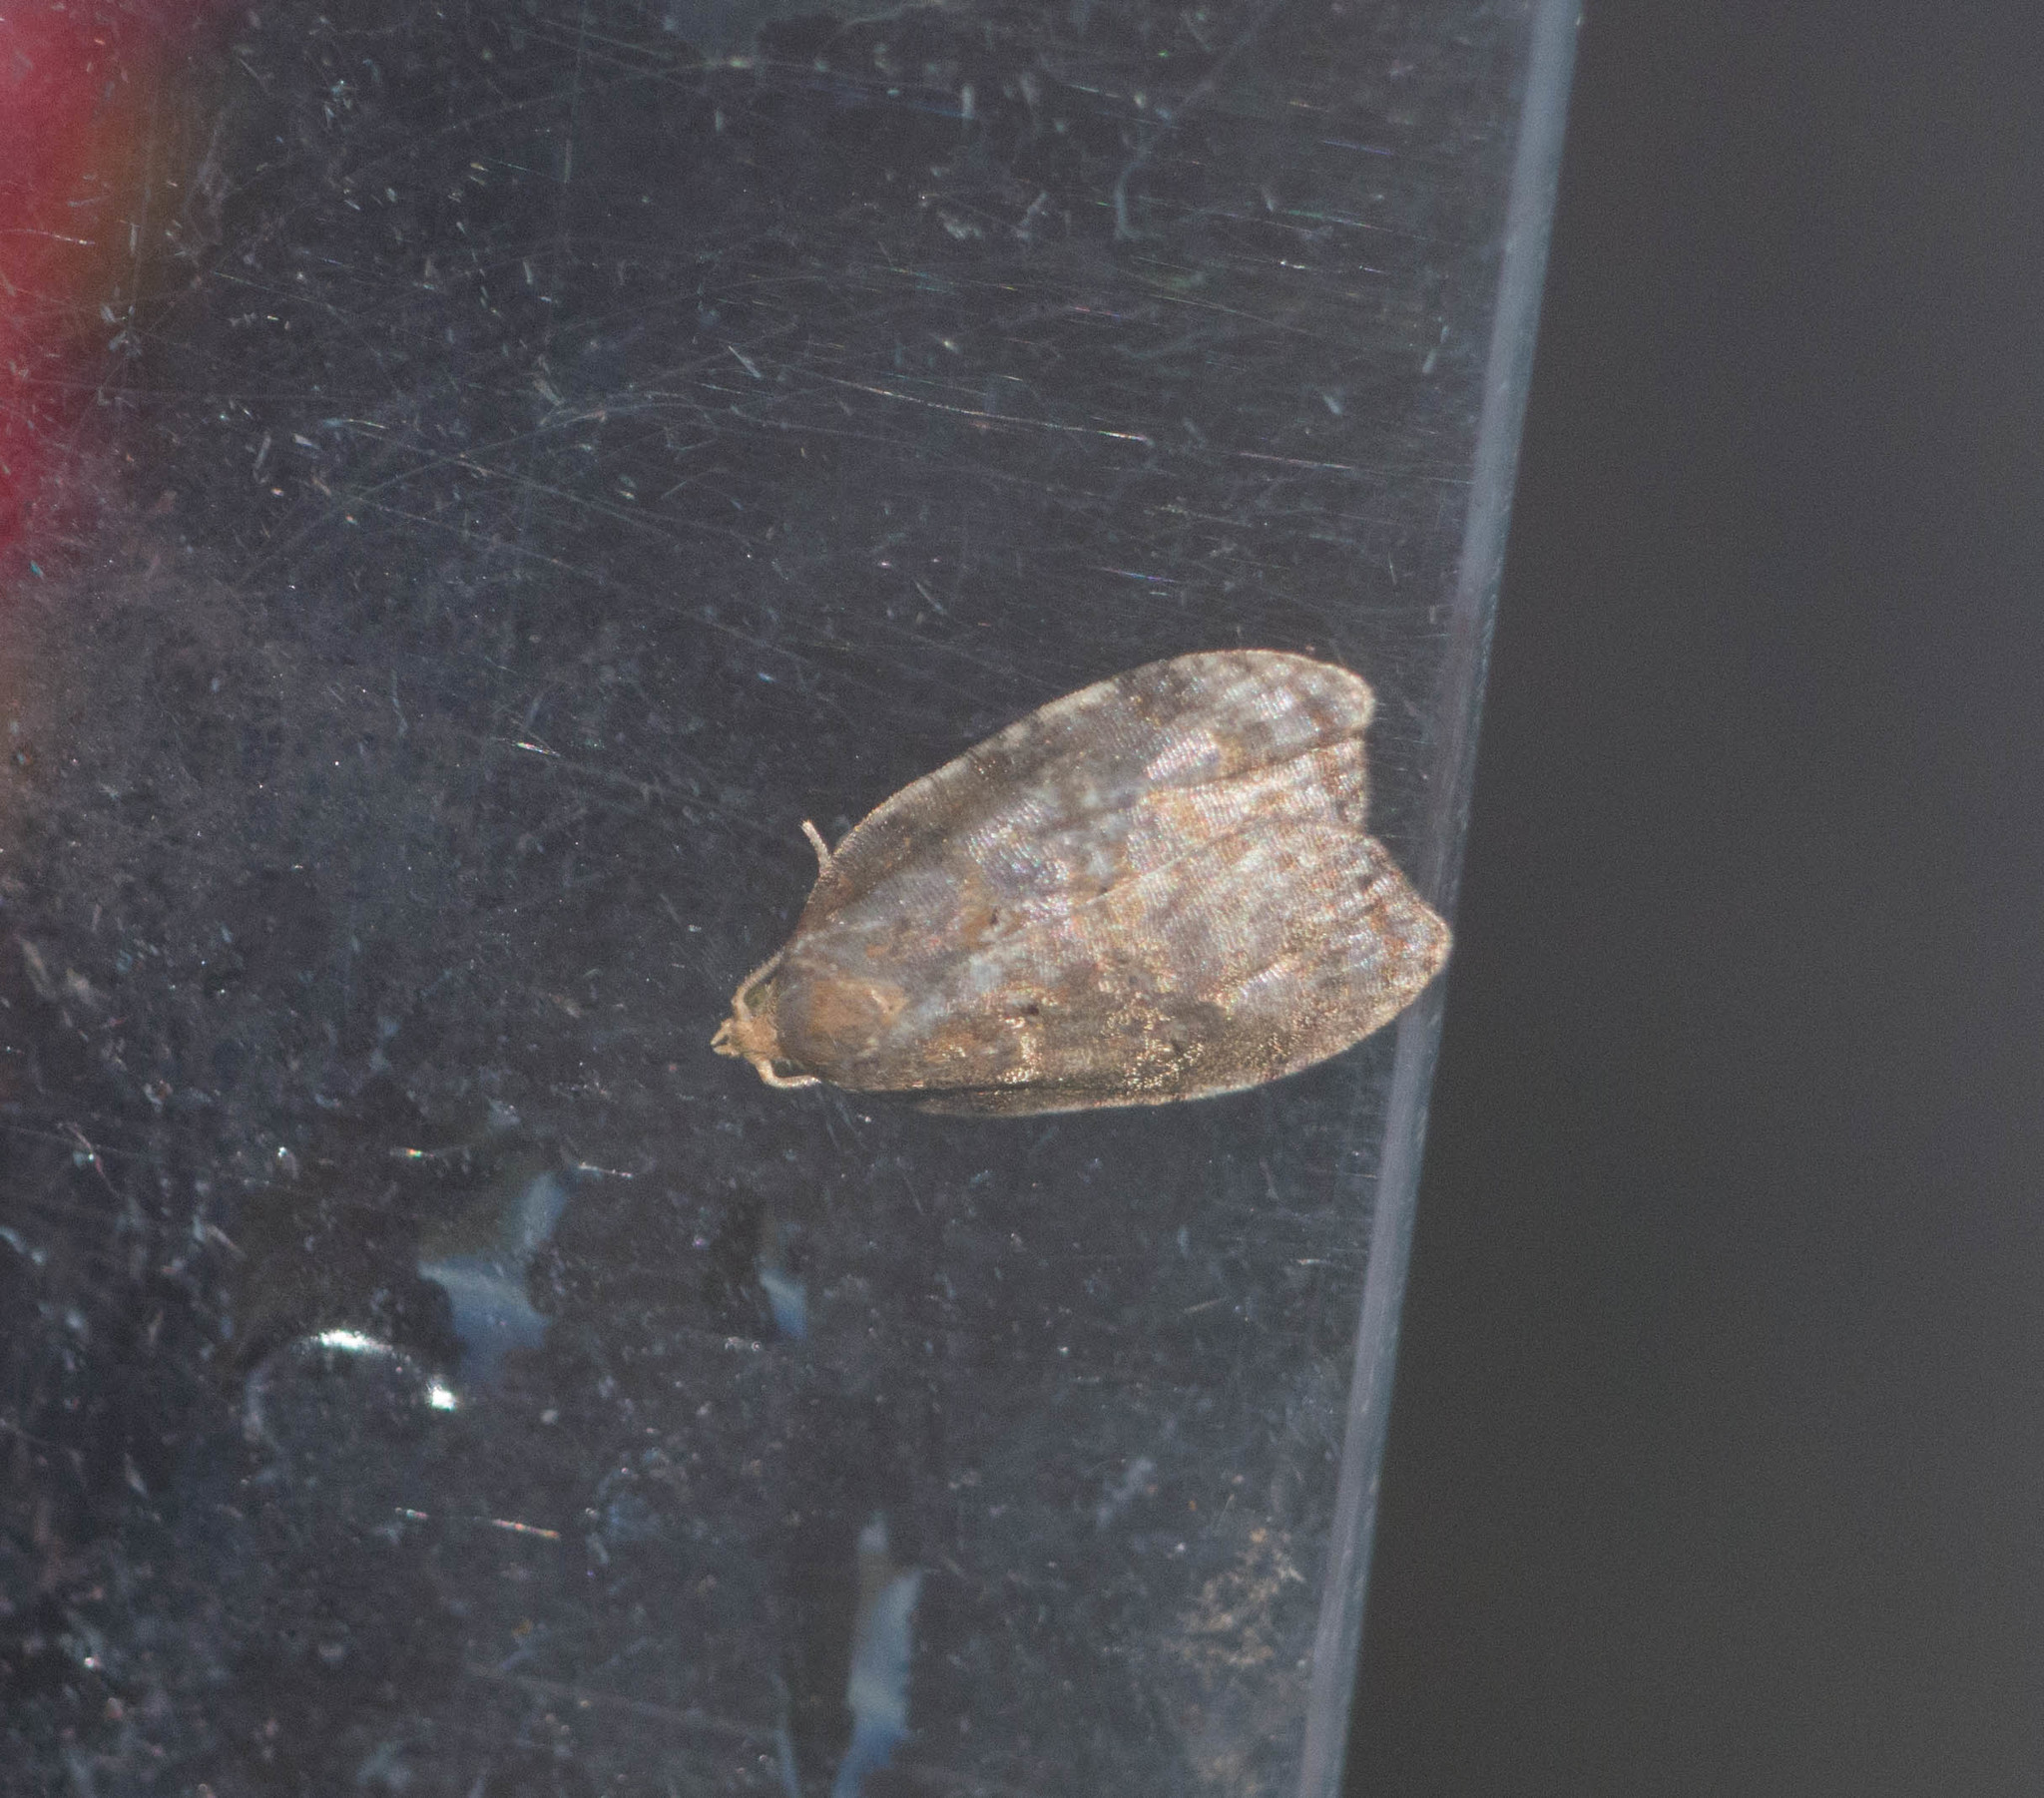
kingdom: Animalia
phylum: Arthropoda
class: Insecta
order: Lepidoptera
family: Tortricidae
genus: Acleris
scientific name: Acleris zimmermani
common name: Tortricid moth
